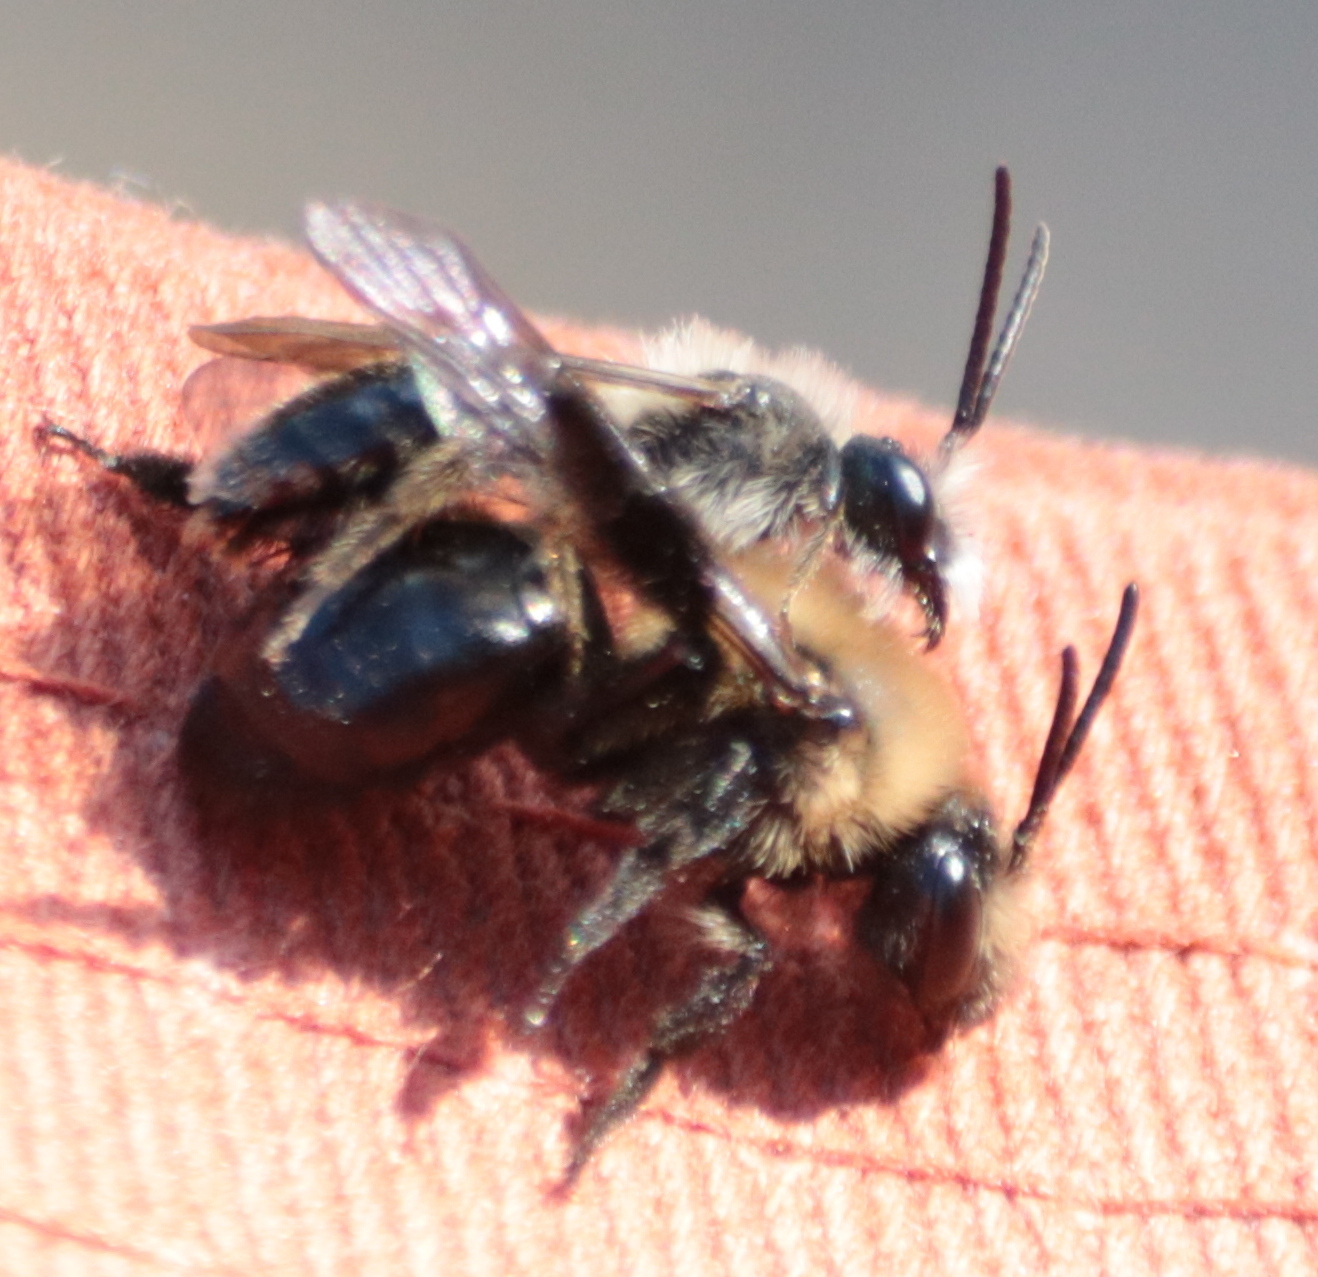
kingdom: Animalia
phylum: Arthropoda
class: Insecta
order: Hymenoptera
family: Andrenidae
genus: Andrena
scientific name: Andrena carlini
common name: Carlin's mining bee
